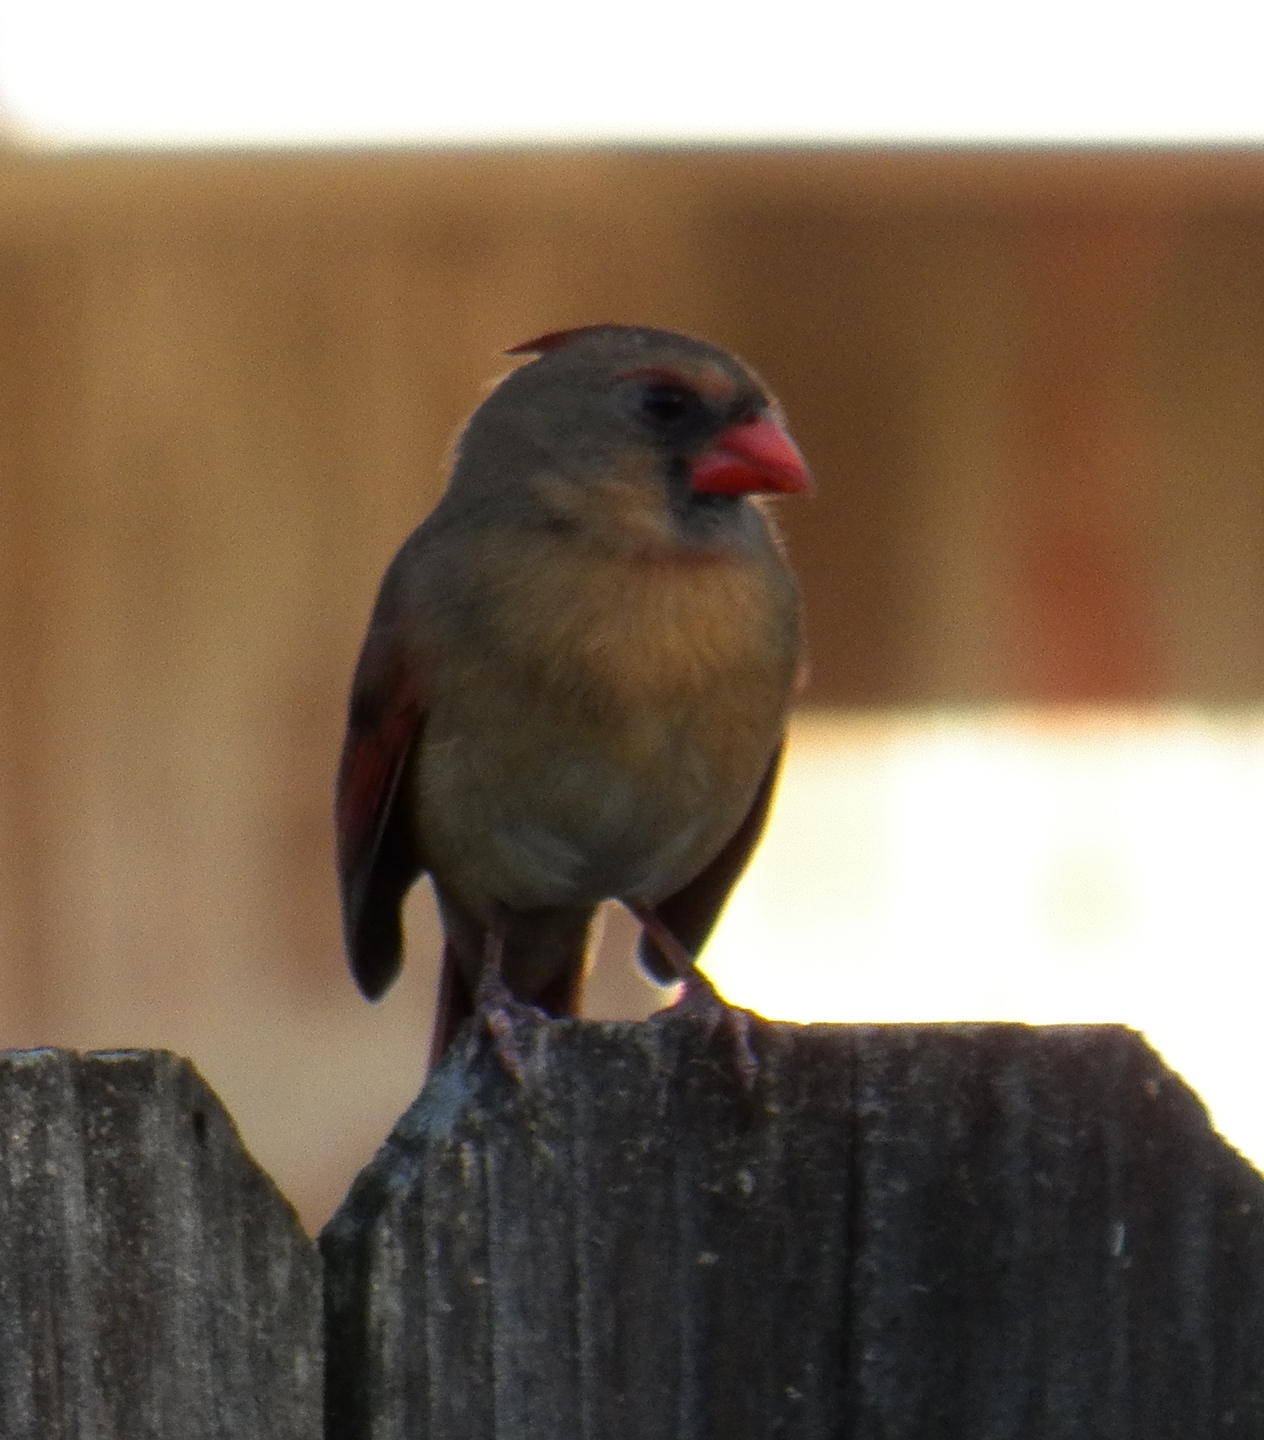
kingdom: Animalia
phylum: Chordata
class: Aves
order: Passeriformes
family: Cardinalidae
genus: Cardinalis
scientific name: Cardinalis cardinalis
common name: Northern cardinal
